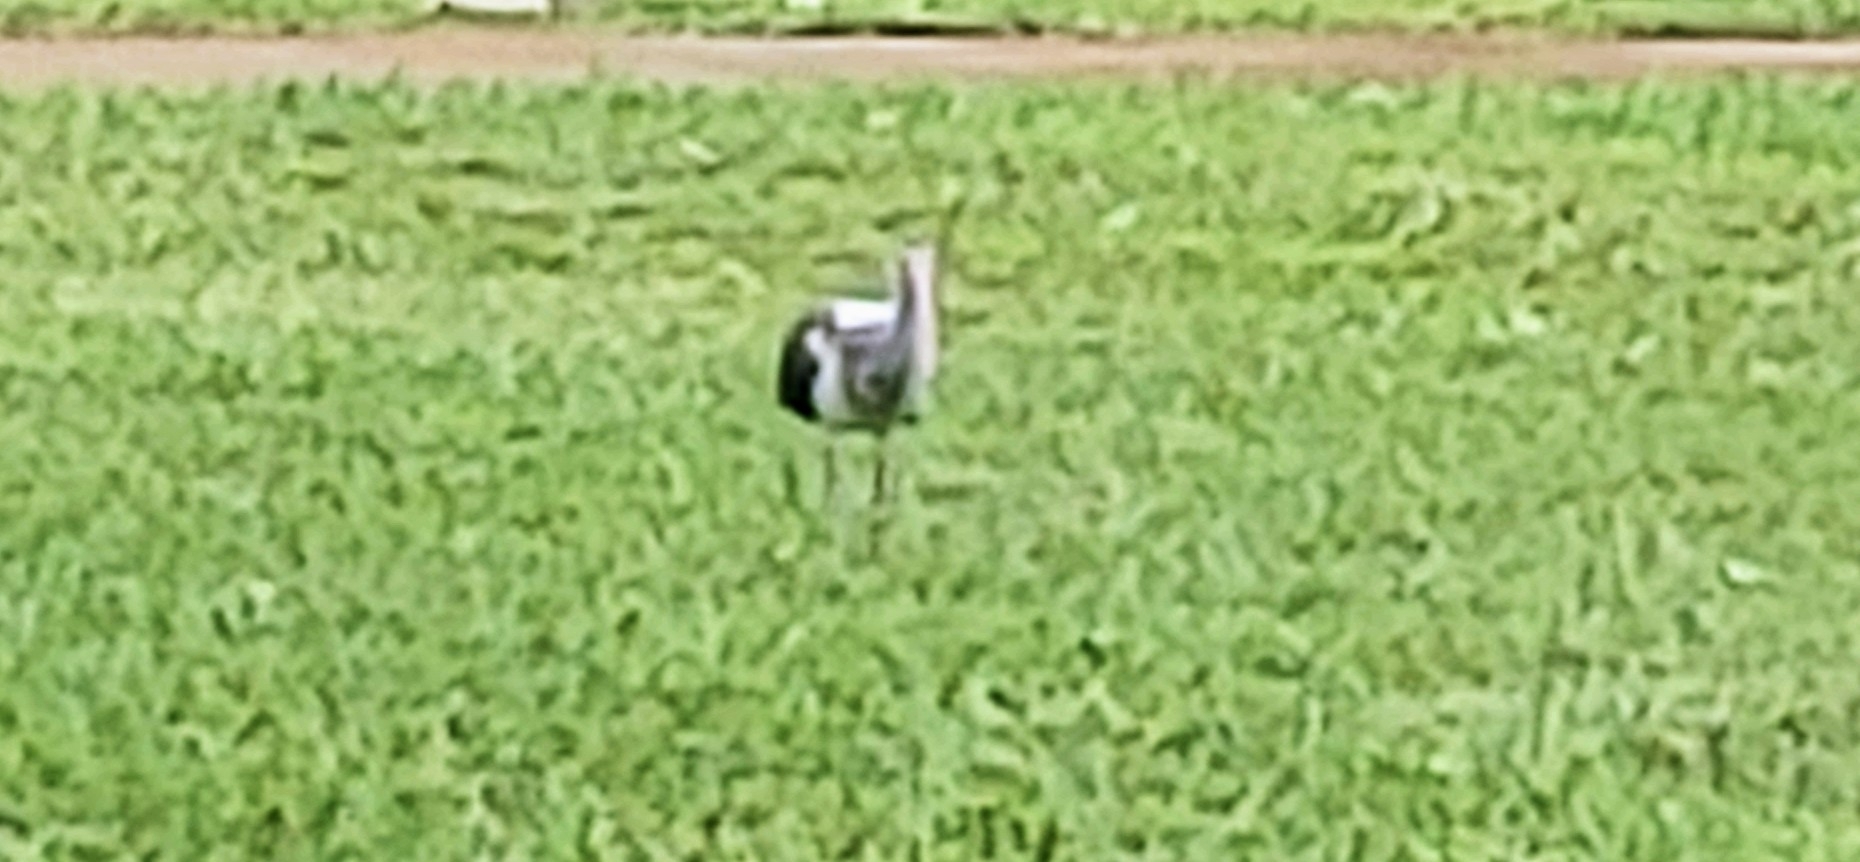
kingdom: Animalia
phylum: Chordata
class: Aves
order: Pelecaniformes
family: Threskiornithidae
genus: Eudocimus
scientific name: Eudocimus albus
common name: White ibis
